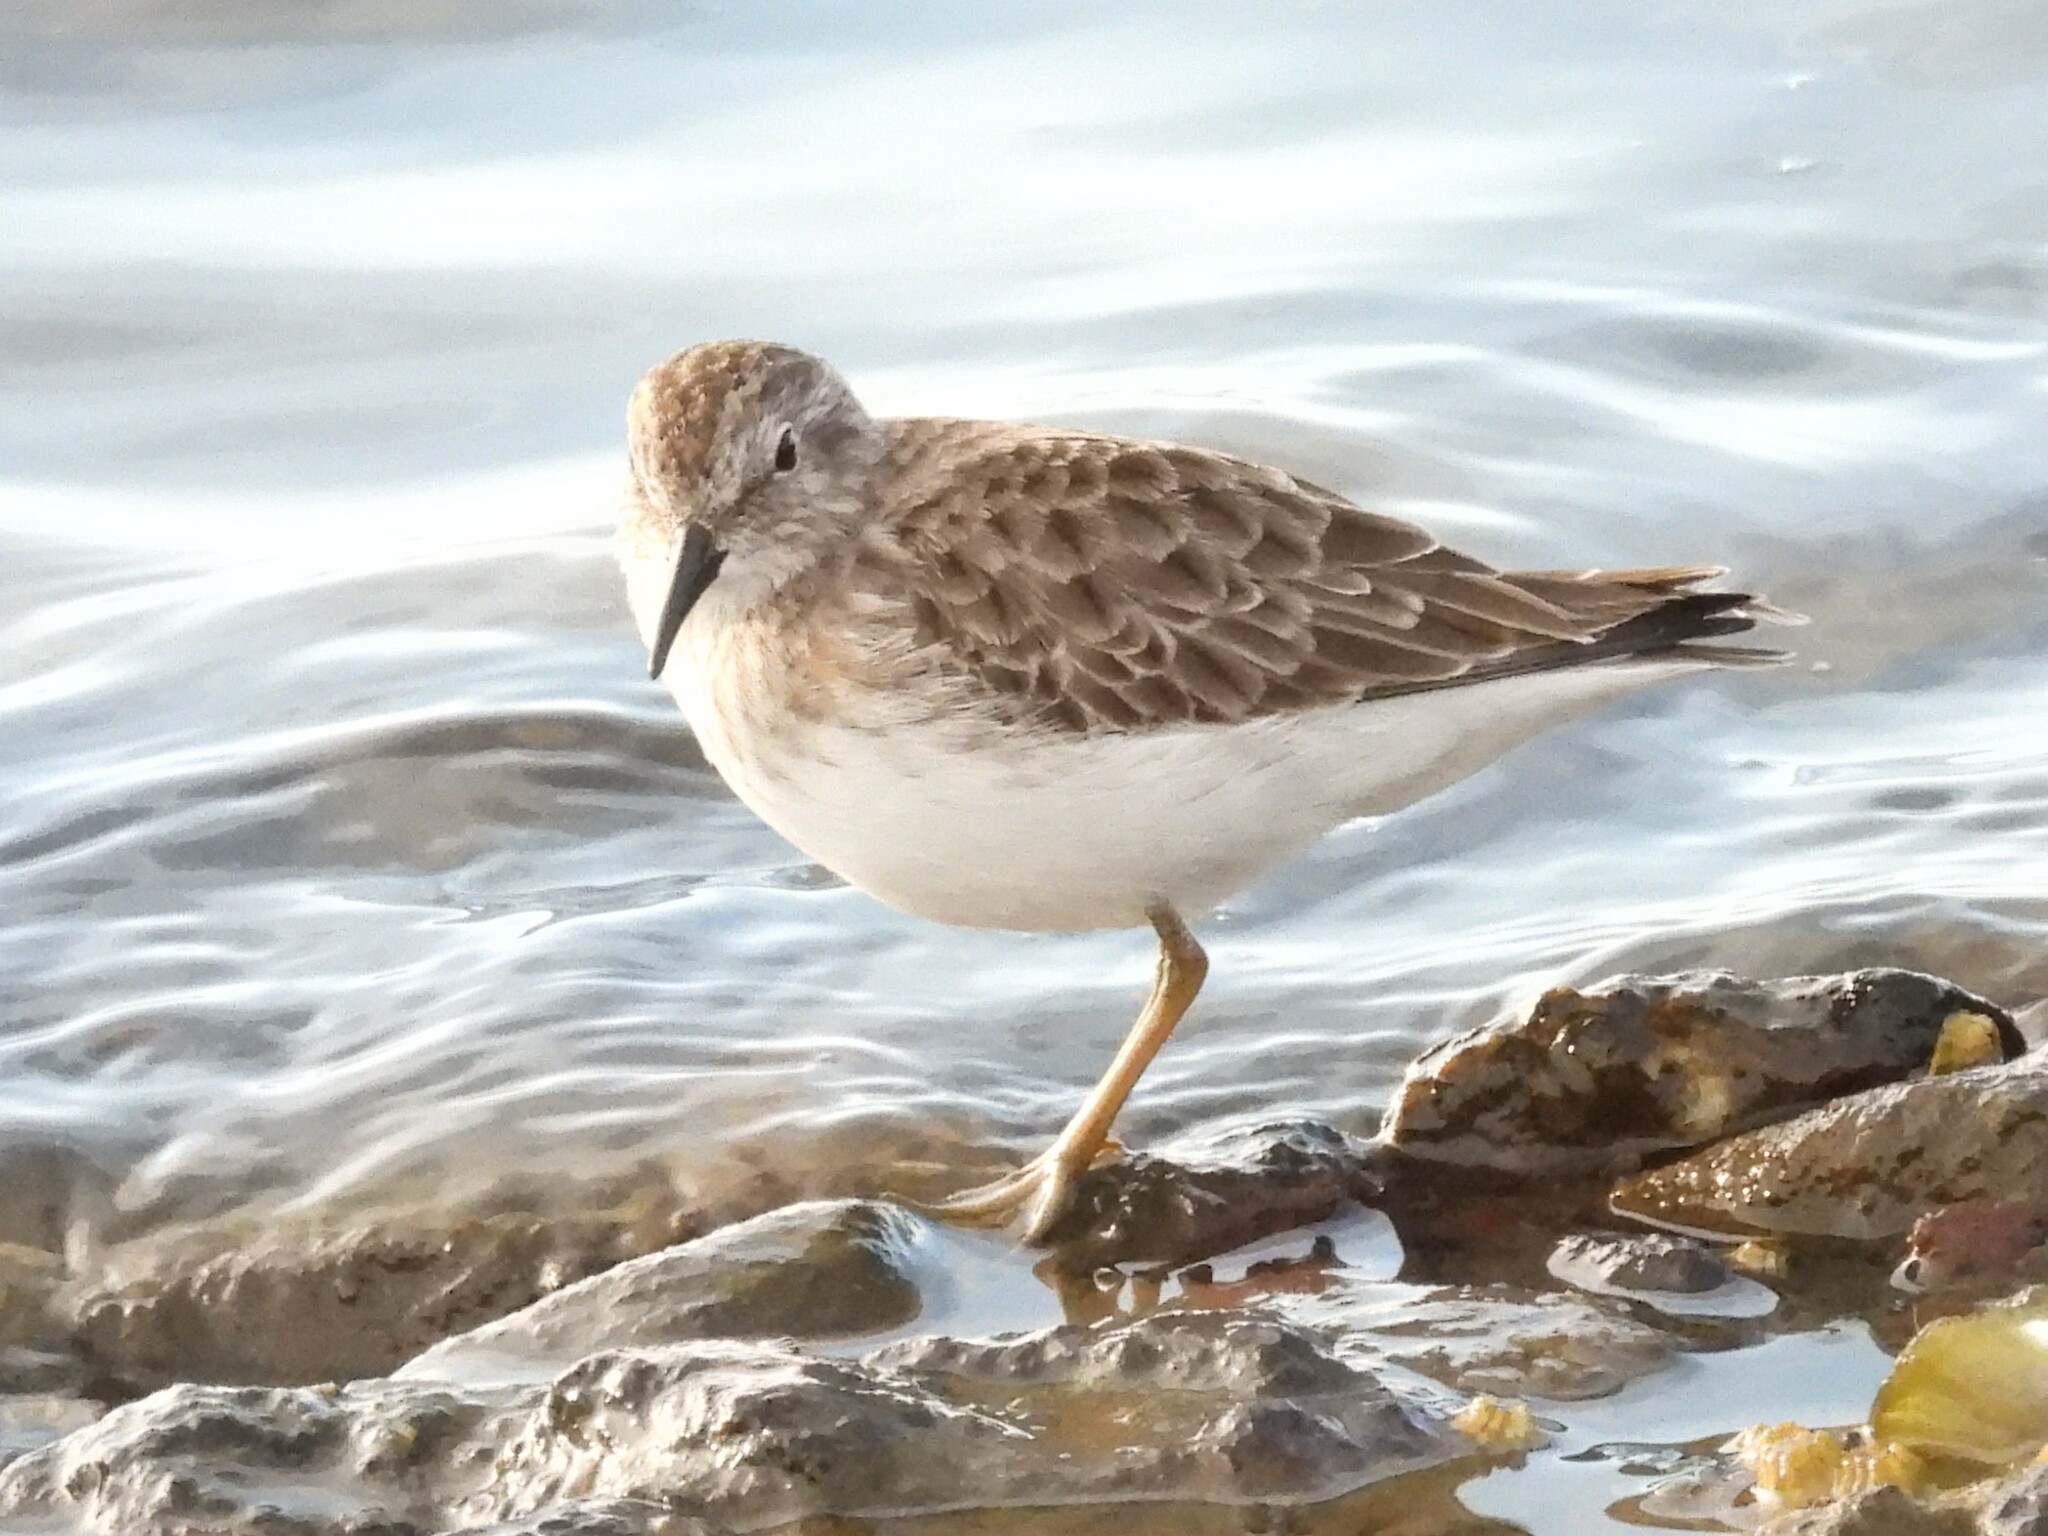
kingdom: Animalia
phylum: Chordata
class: Aves
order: Charadriiformes
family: Scolopacidae
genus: Calidris
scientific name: Calidris minutilla
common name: Least sandpiper
